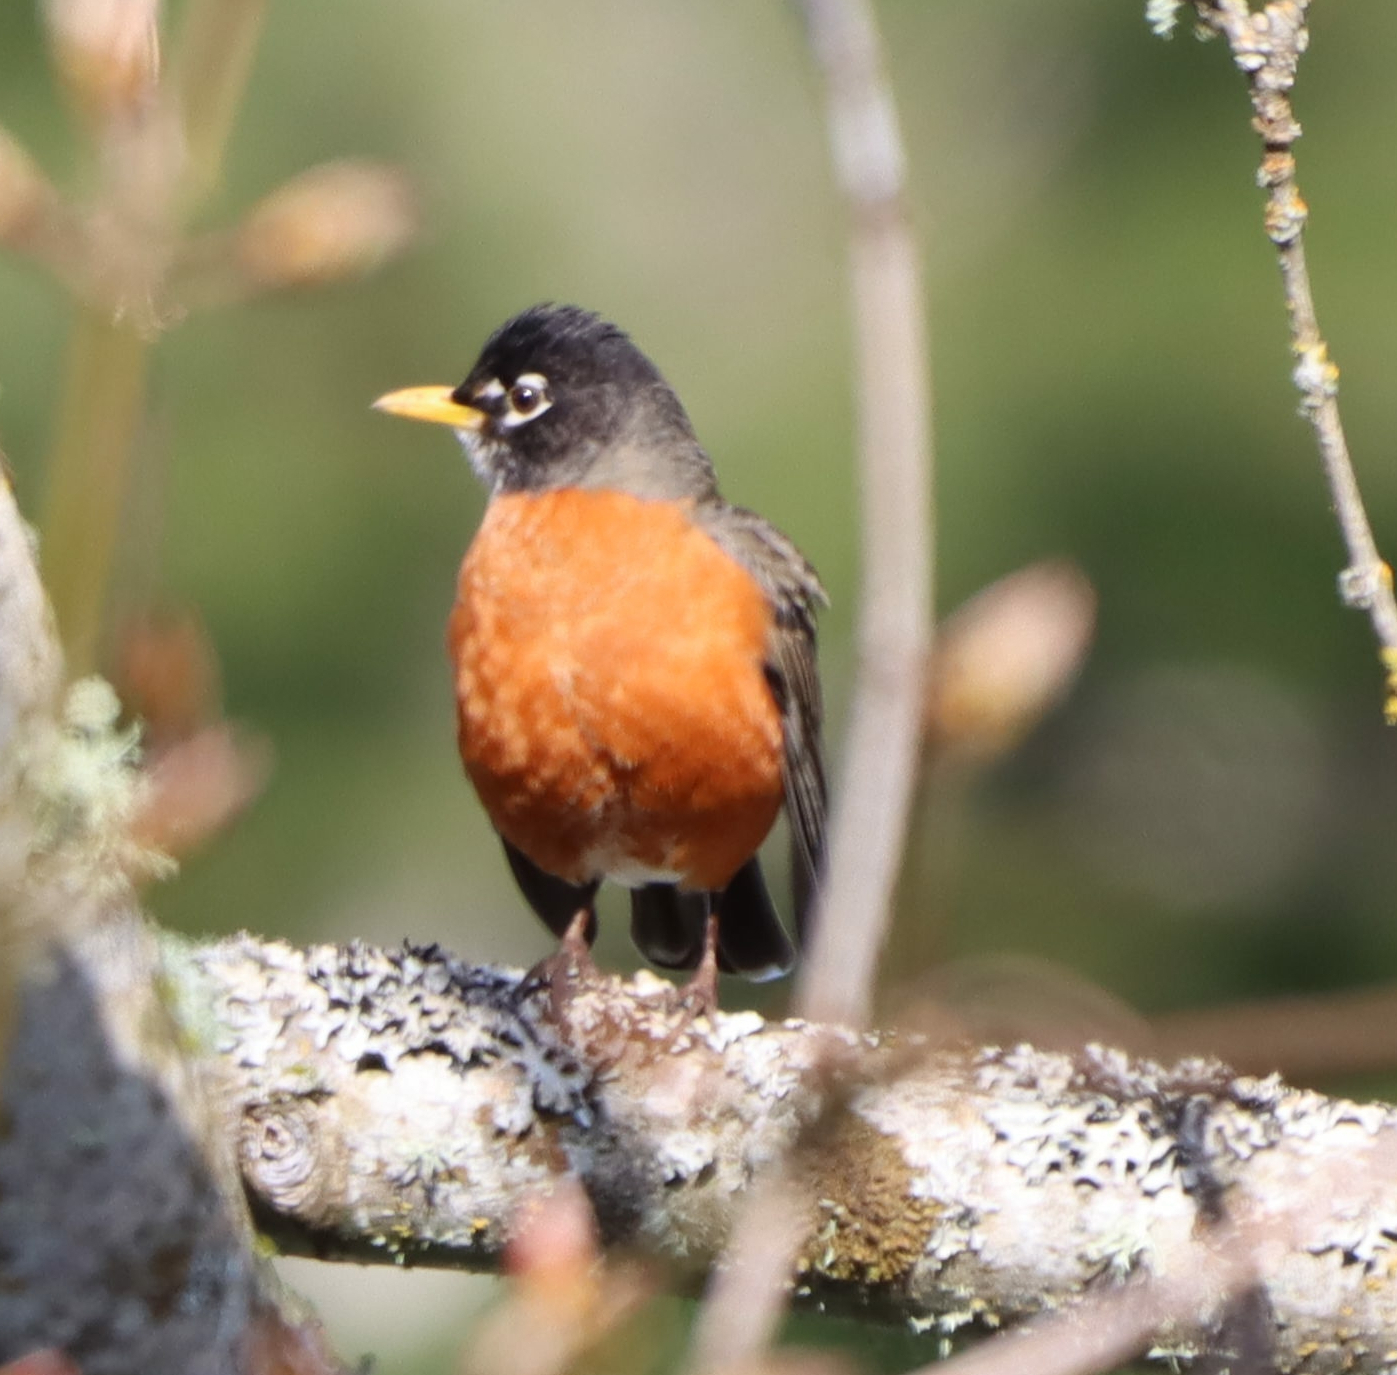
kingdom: Animalia
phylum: Chordata
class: Aves
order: Passeriformes
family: Turdidae
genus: Turdus
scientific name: Turdus migratorius
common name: American robin
